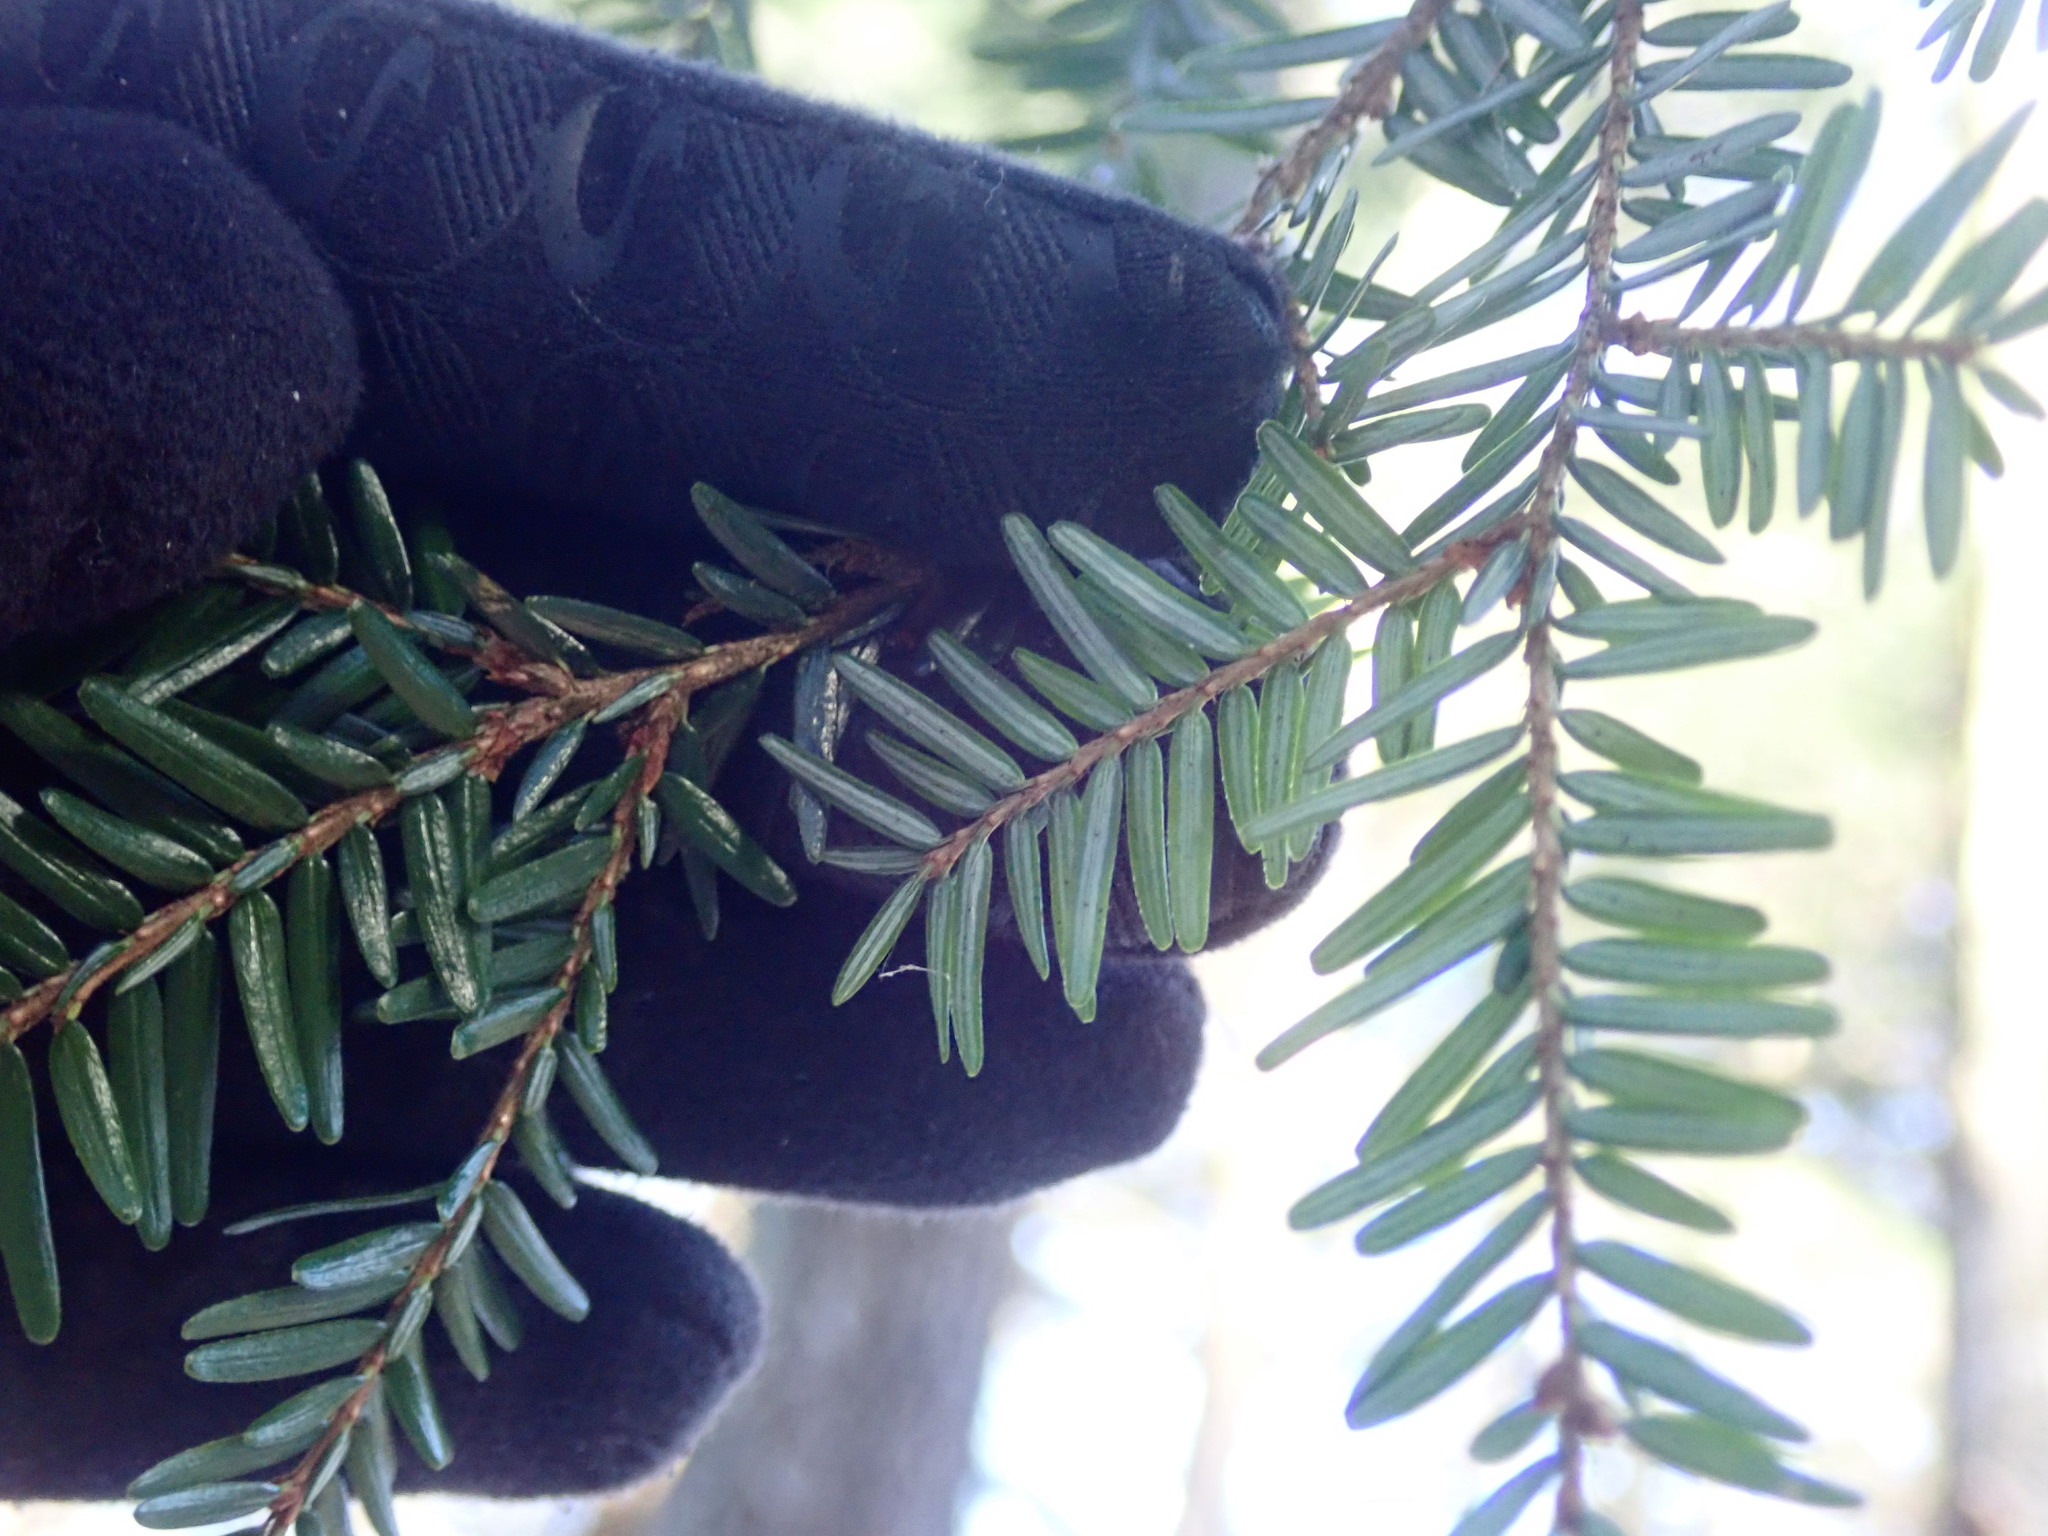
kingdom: Plantae
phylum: Tracheophyta
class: Pinopsida
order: Pinales
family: Pinaceae
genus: Tsuga
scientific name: Tsuga canadensis
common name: Eastern hemlock
